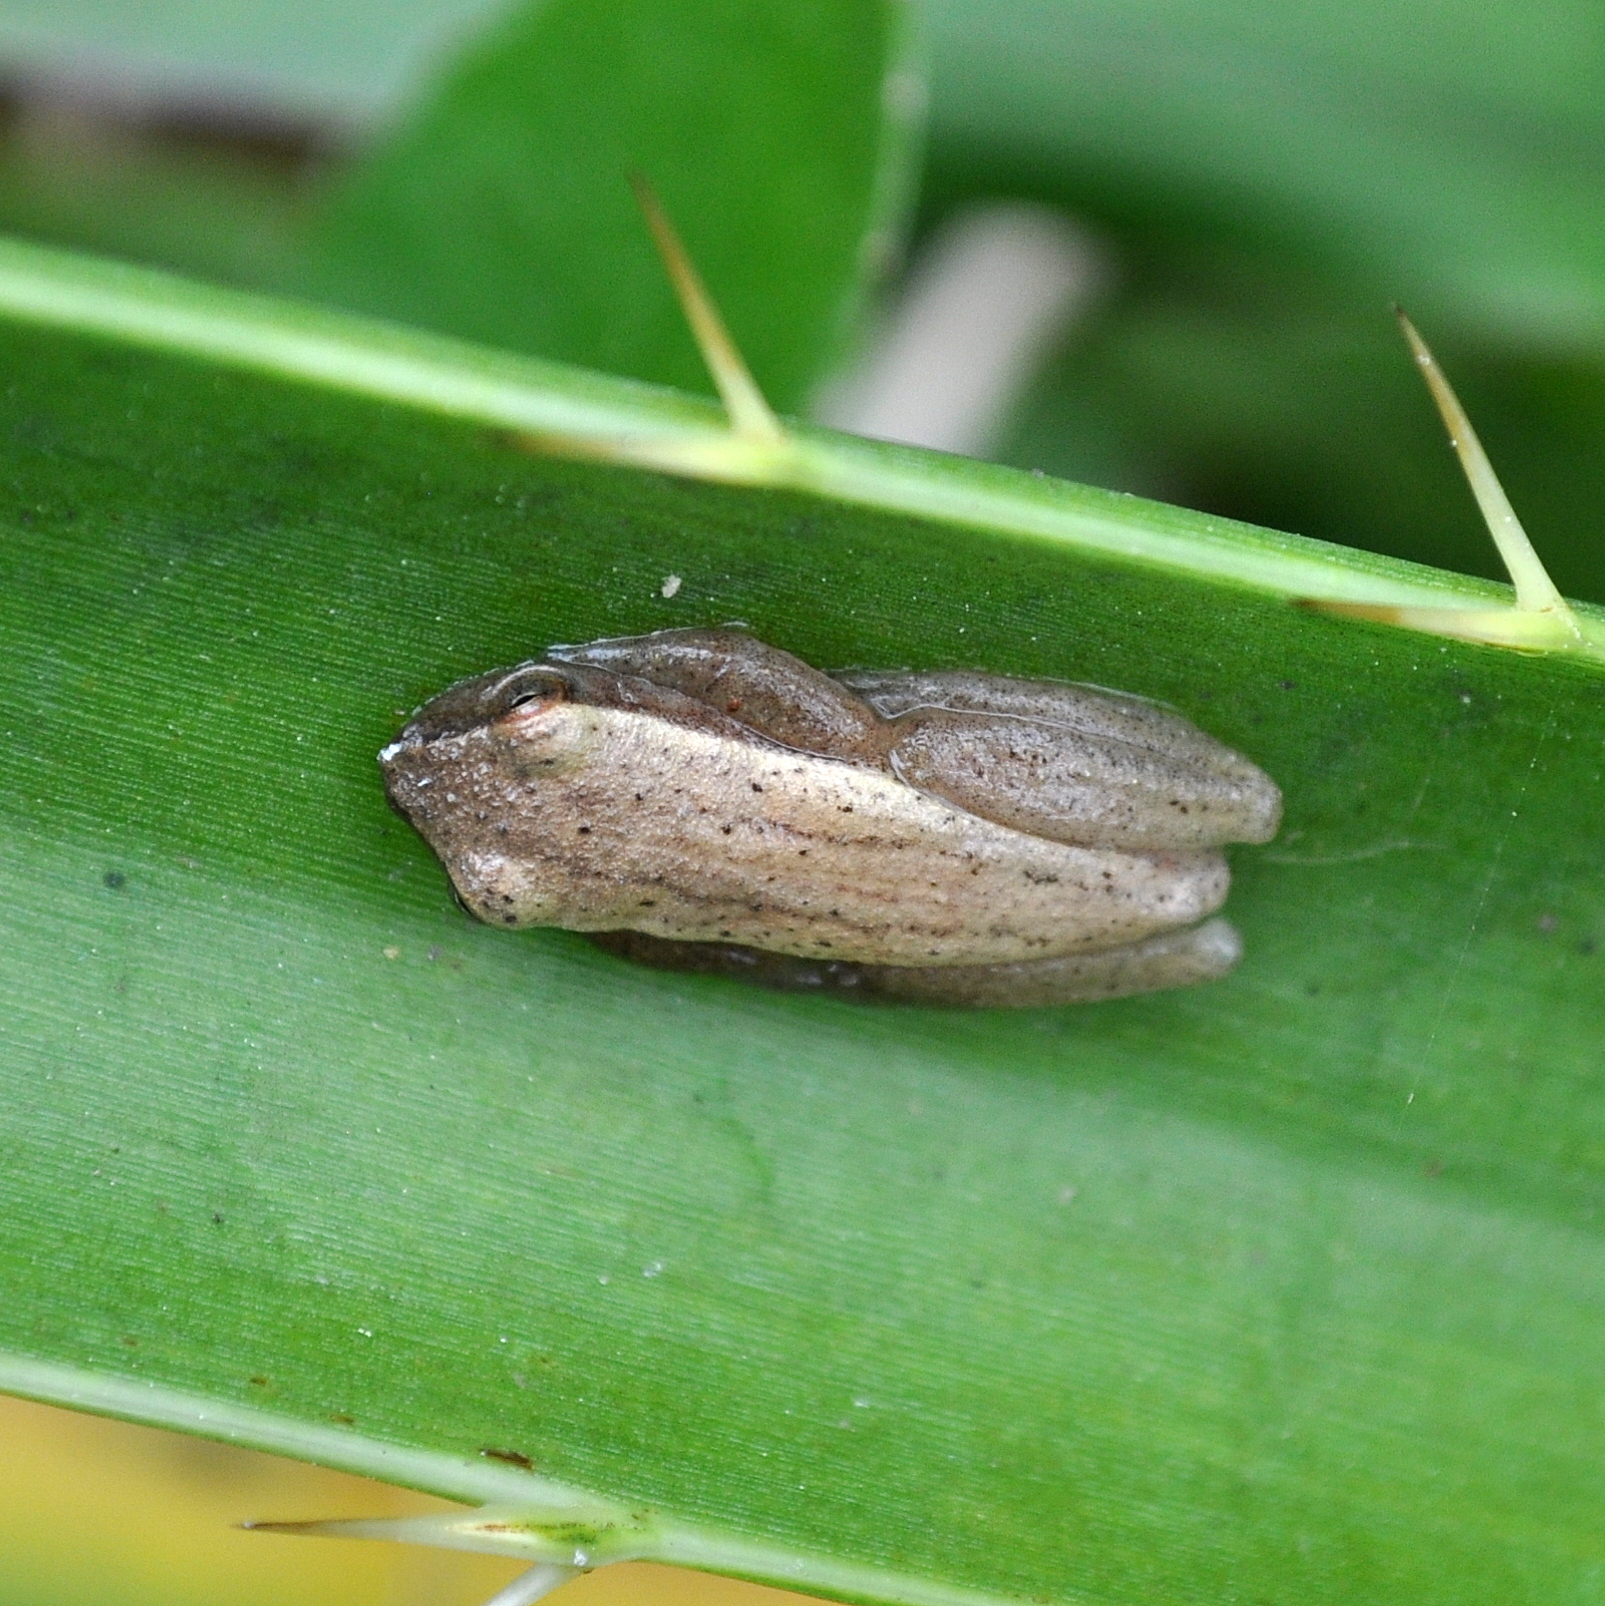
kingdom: Animalia
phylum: Chordata
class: Amphibia
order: Anura
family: Hylidae
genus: Dendropsophus
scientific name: Dendropsophus sanborni
